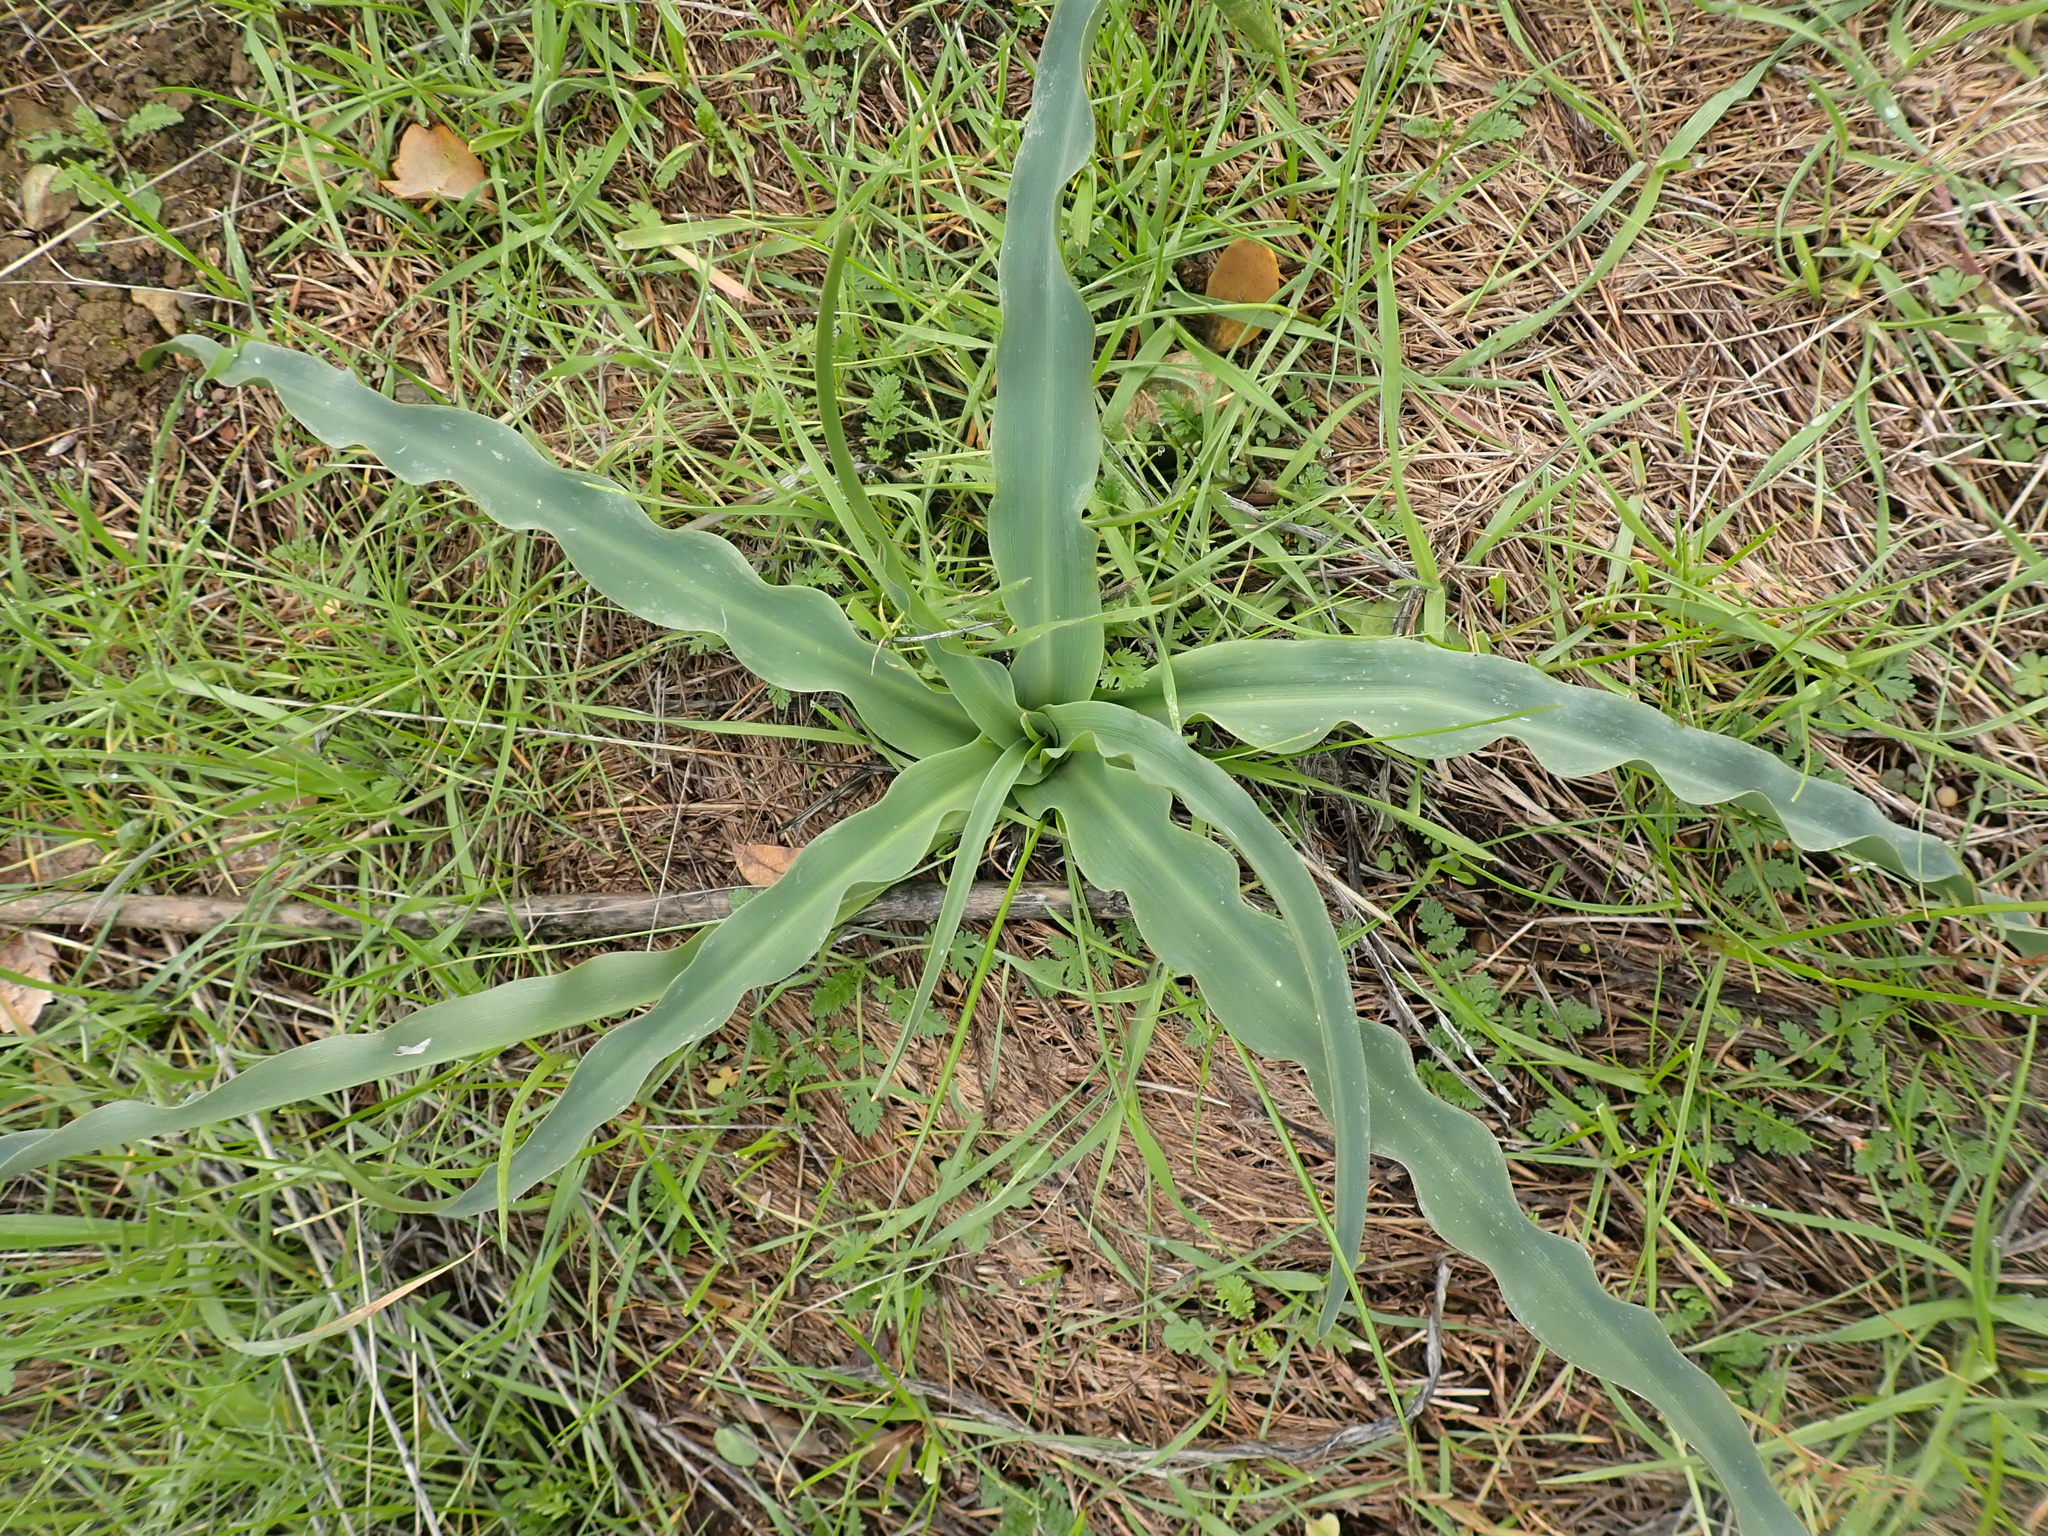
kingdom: Plantae
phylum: Tracheophyta
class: Liliopsida
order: Asparagales
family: Asparagaceae
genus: Chlorogalum
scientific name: Chlorogalum pomeridianum
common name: Amole
